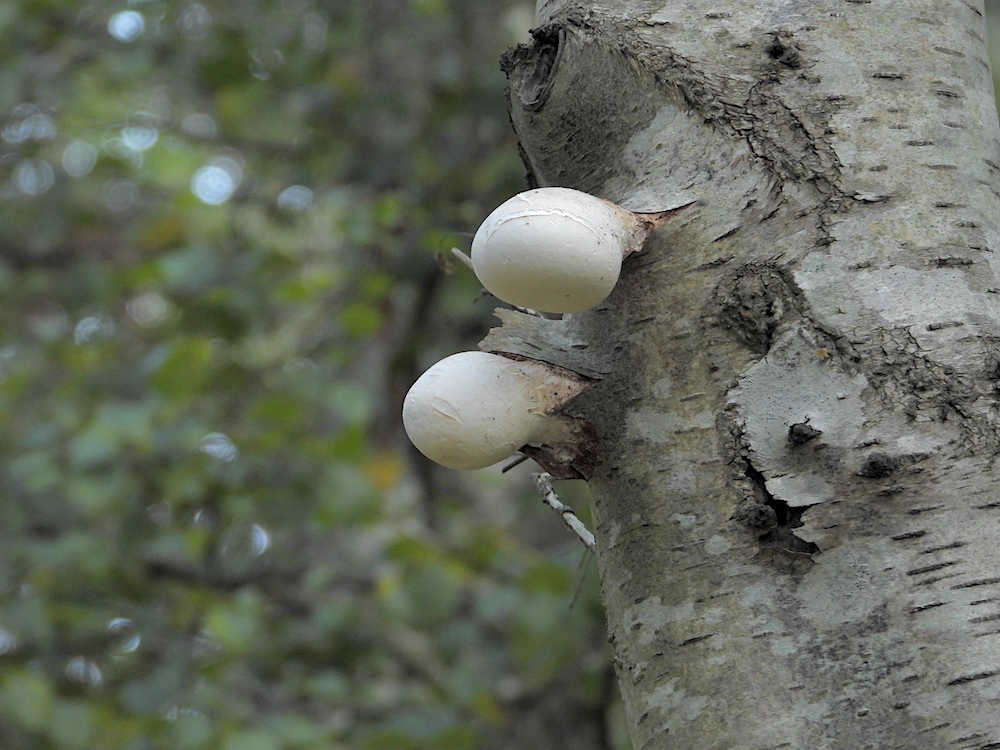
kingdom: Fungi
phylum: Basidiomycota
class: Agaricomycetes
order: Polyporales
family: Fomitopsidaceae
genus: Fomitopsis
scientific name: Fomitopsis betulina
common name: Birch polypore
